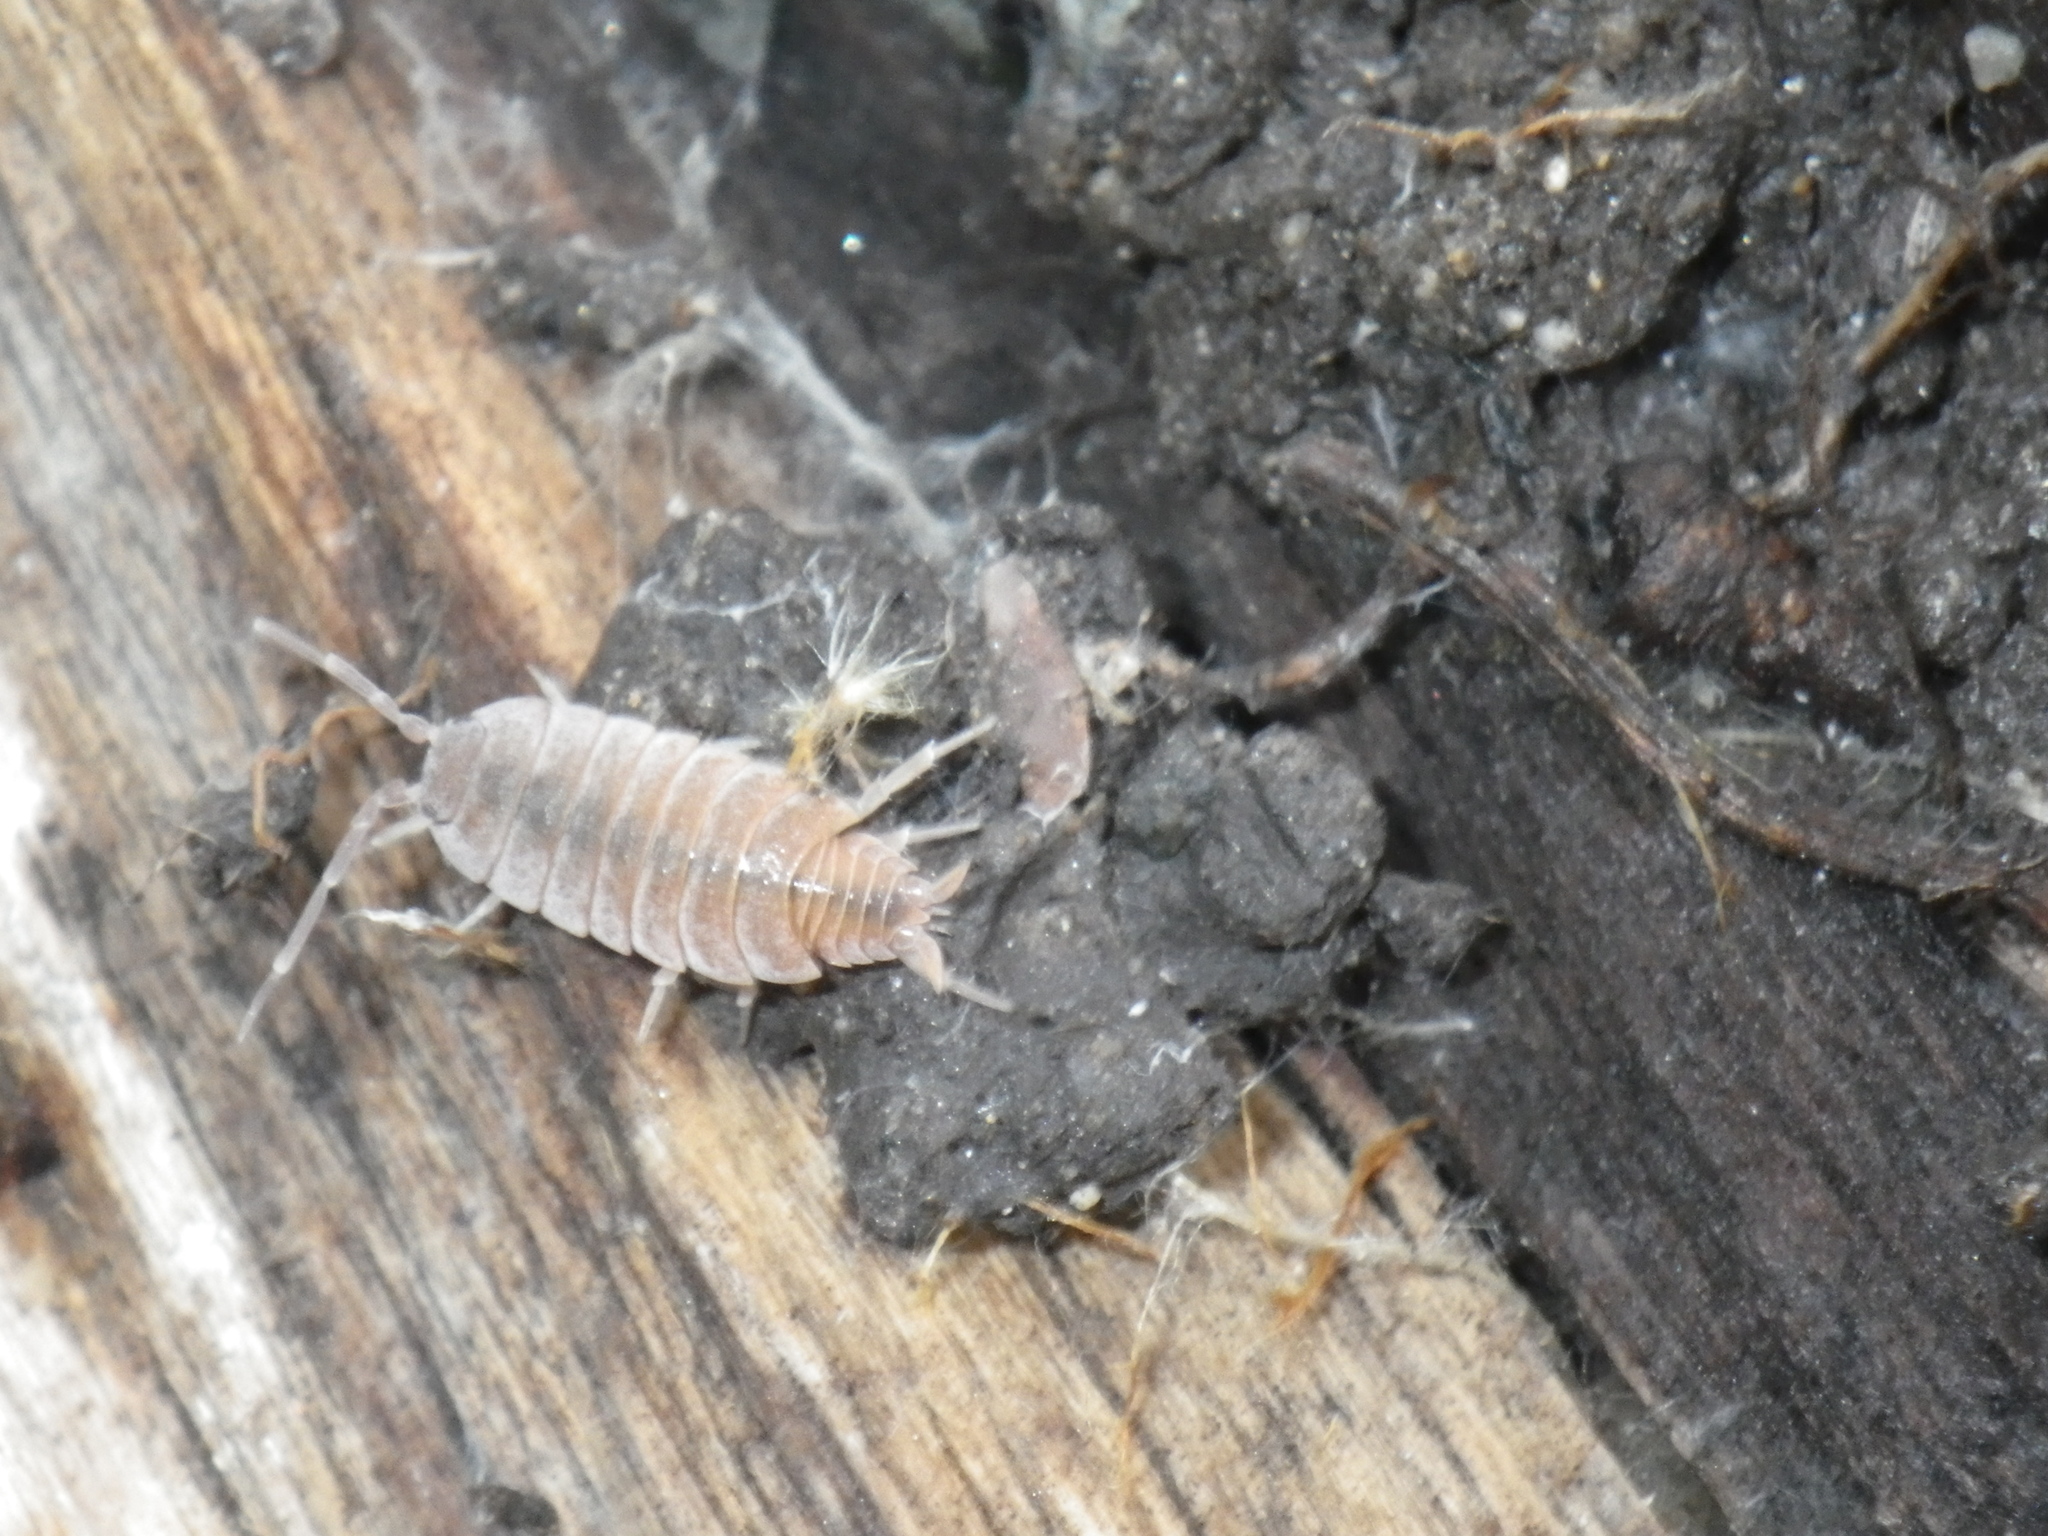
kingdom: Animalia
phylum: Arthropoda
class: Malacostraca
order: Isopoda
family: Porcellionidae
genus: Porcellionides
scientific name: Porcellionides
